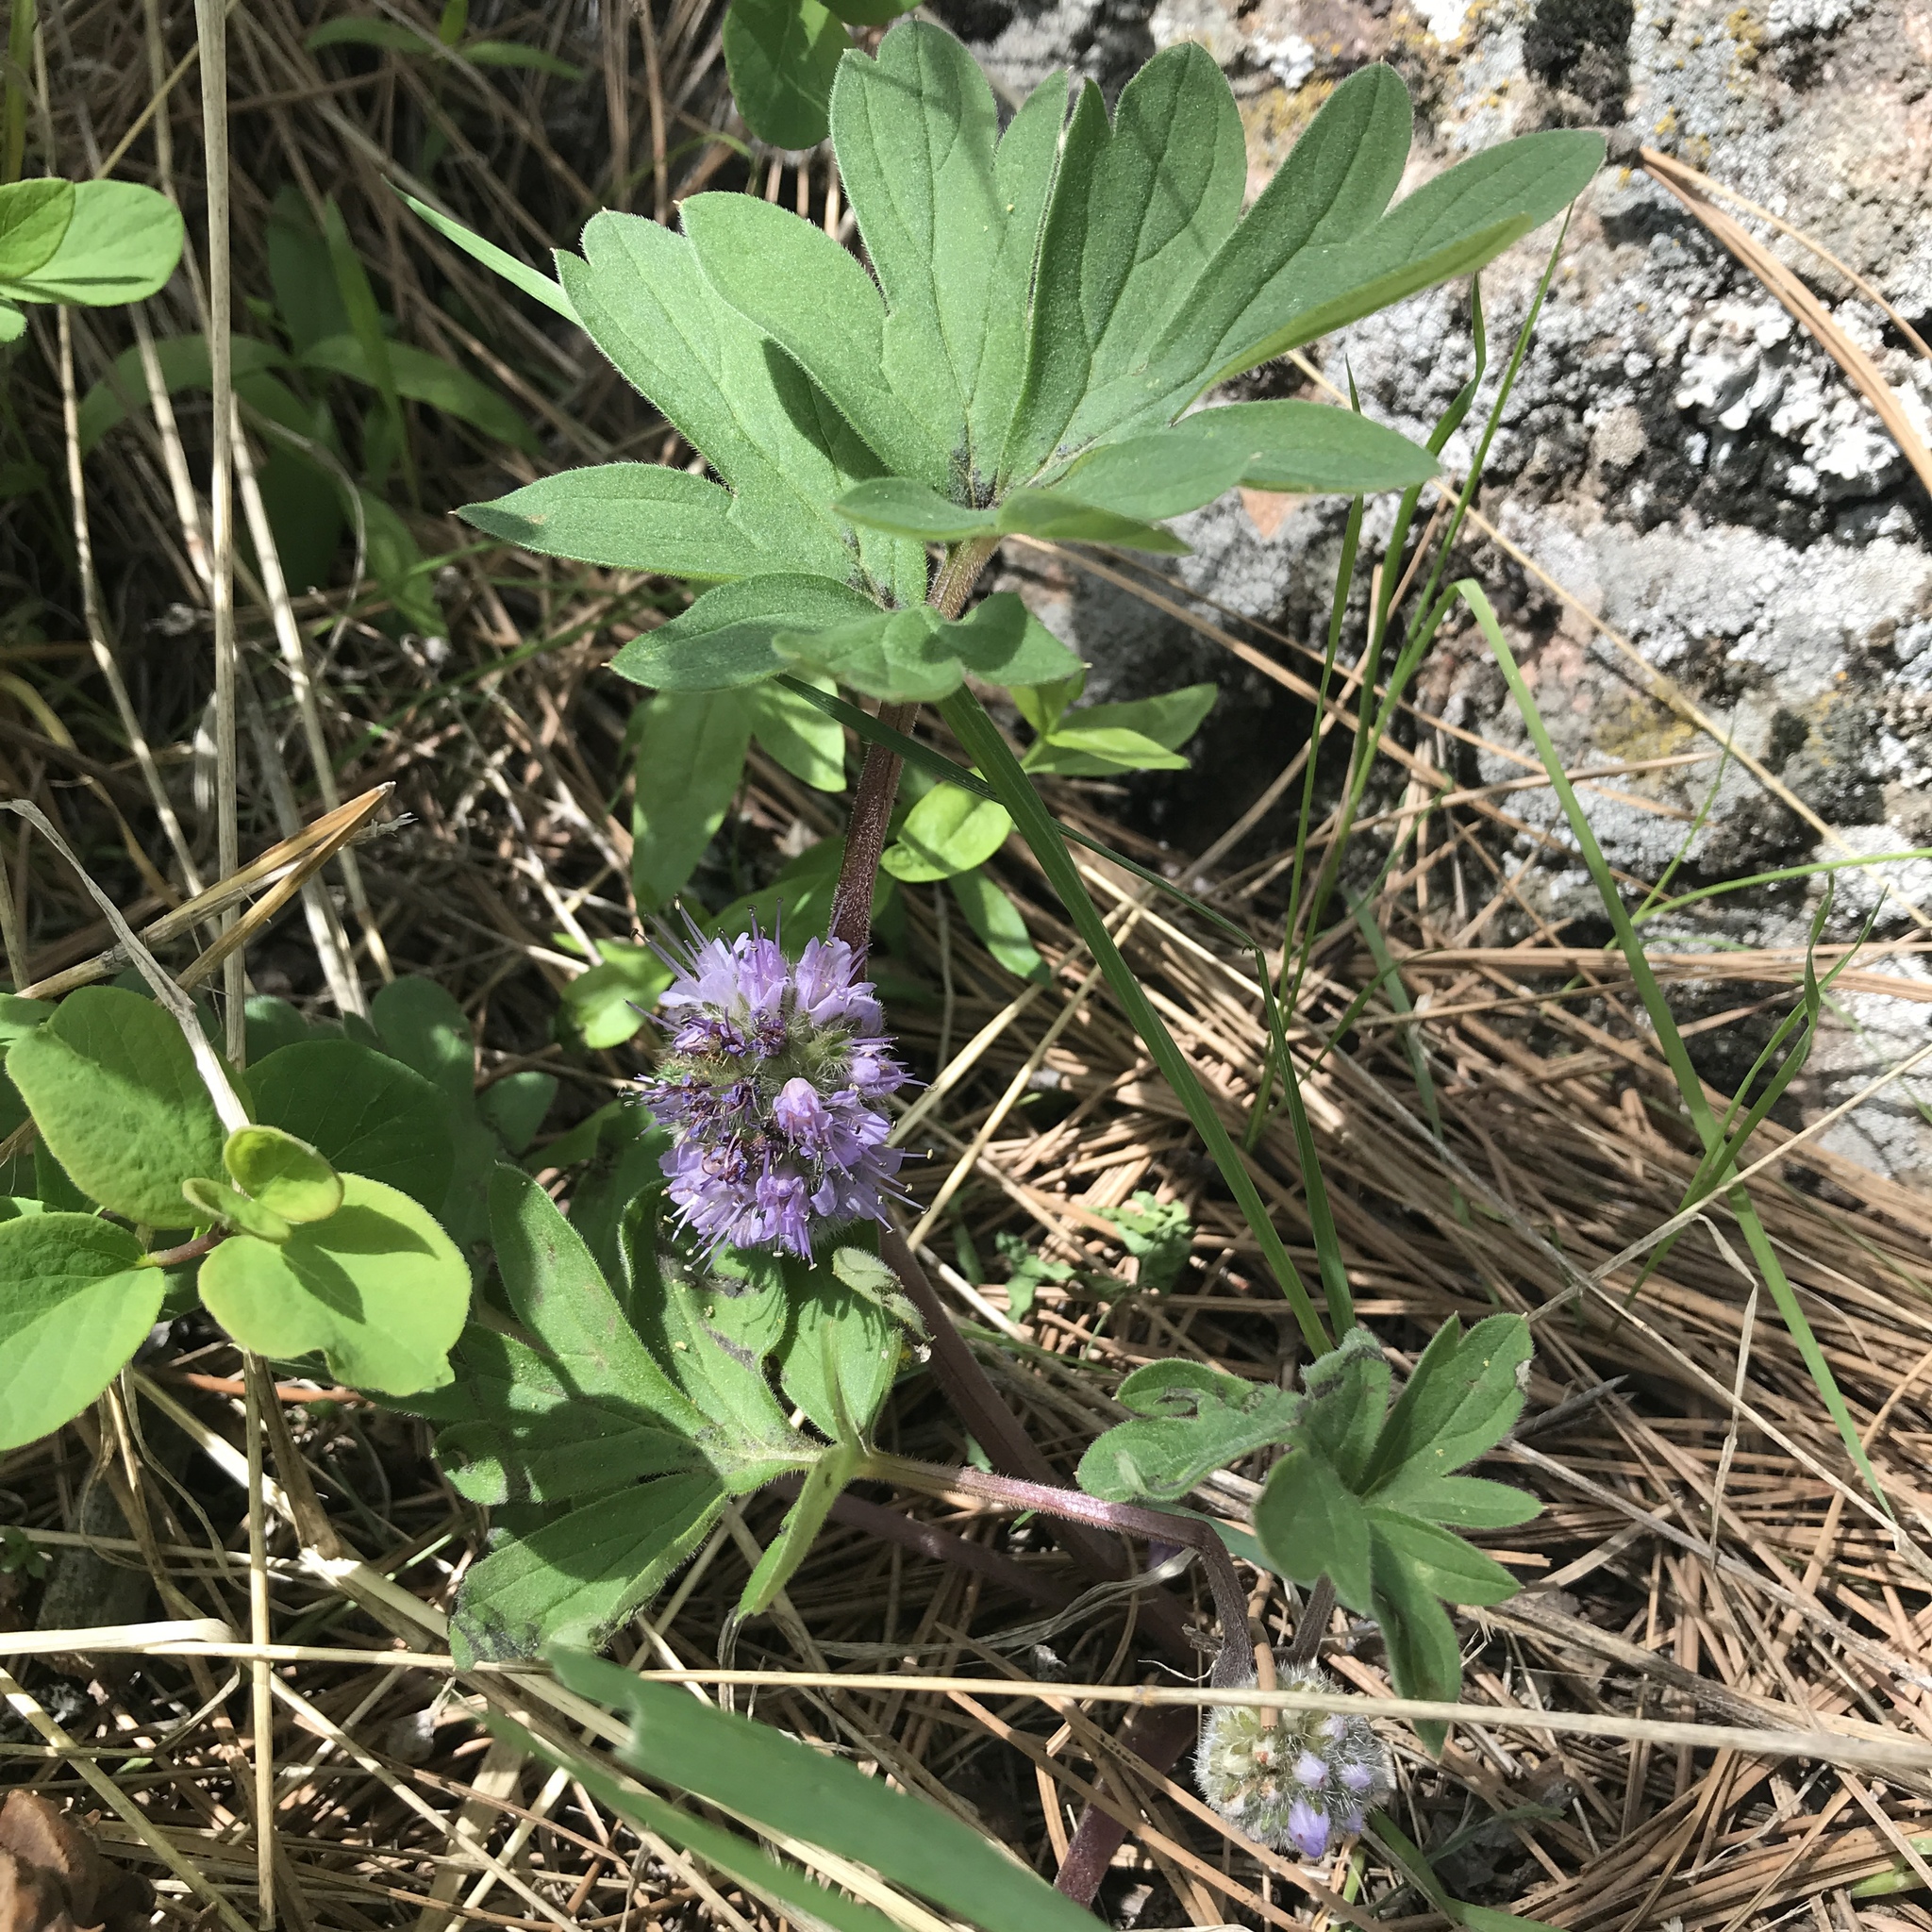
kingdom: Plantae
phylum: Tracheophyta
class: Magnoliopsida
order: Boraginales
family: Hydrophyllaceae
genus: Hydrophyllum
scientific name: Hydrophyllum capitatum
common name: Woollen-breeches
